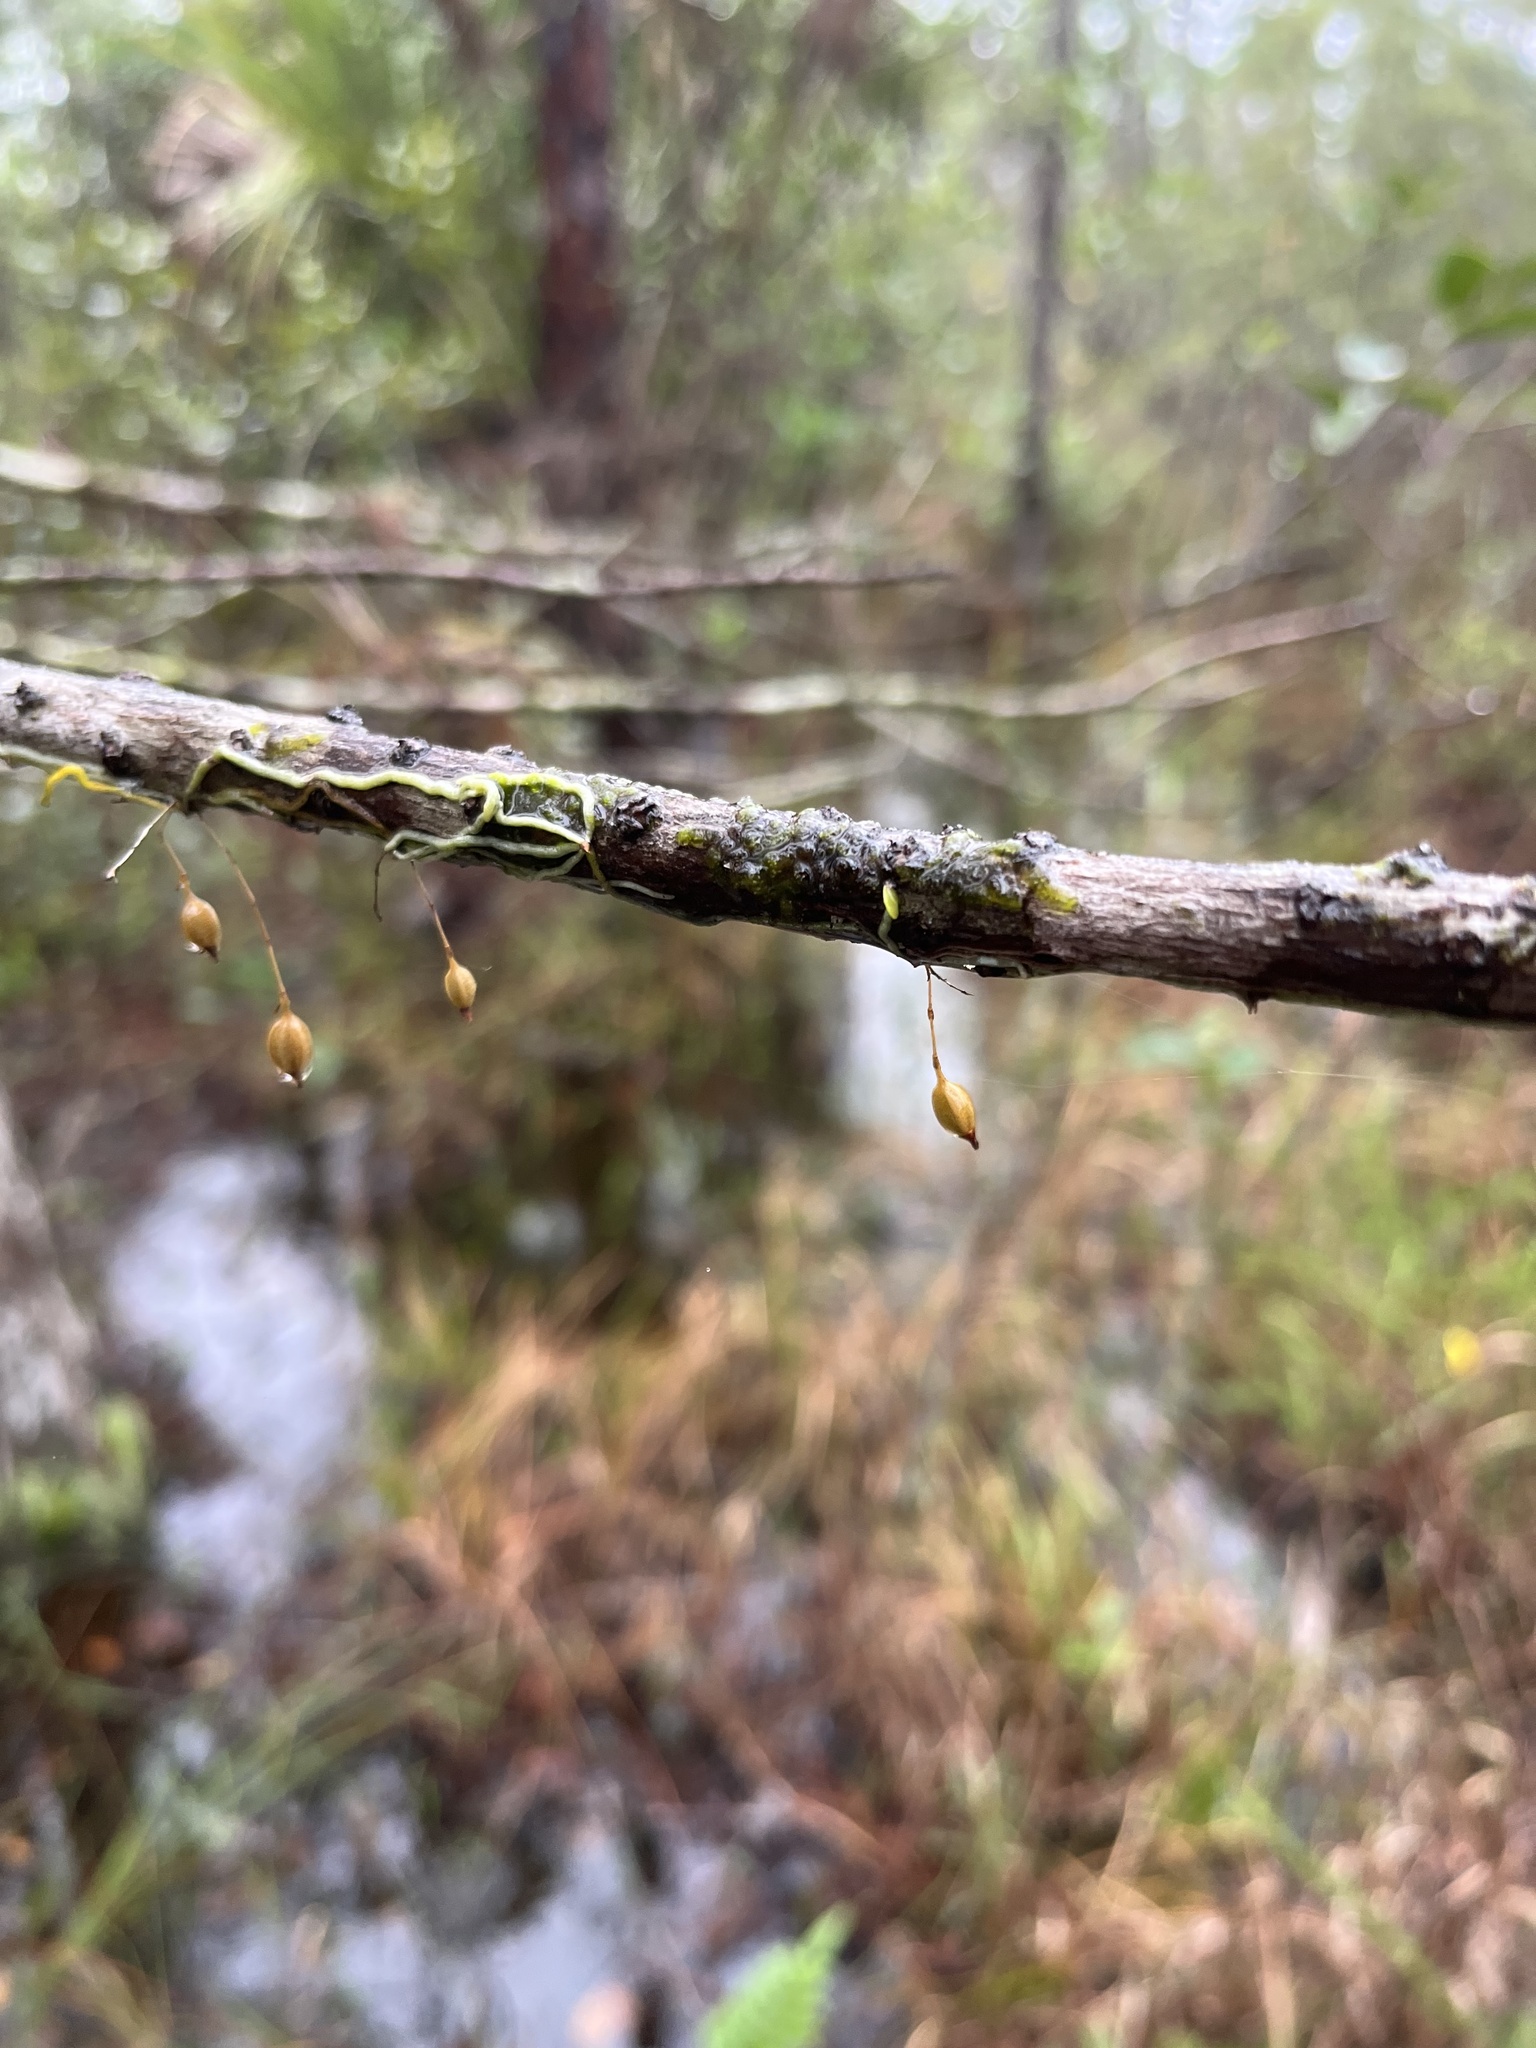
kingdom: Plantae
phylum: Tracheophyta
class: Liliopsida
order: Asparagales
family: Orchidaceae
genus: Dendrophylax
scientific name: Dendrophylax porrectus
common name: Needleroot airplant orchid
